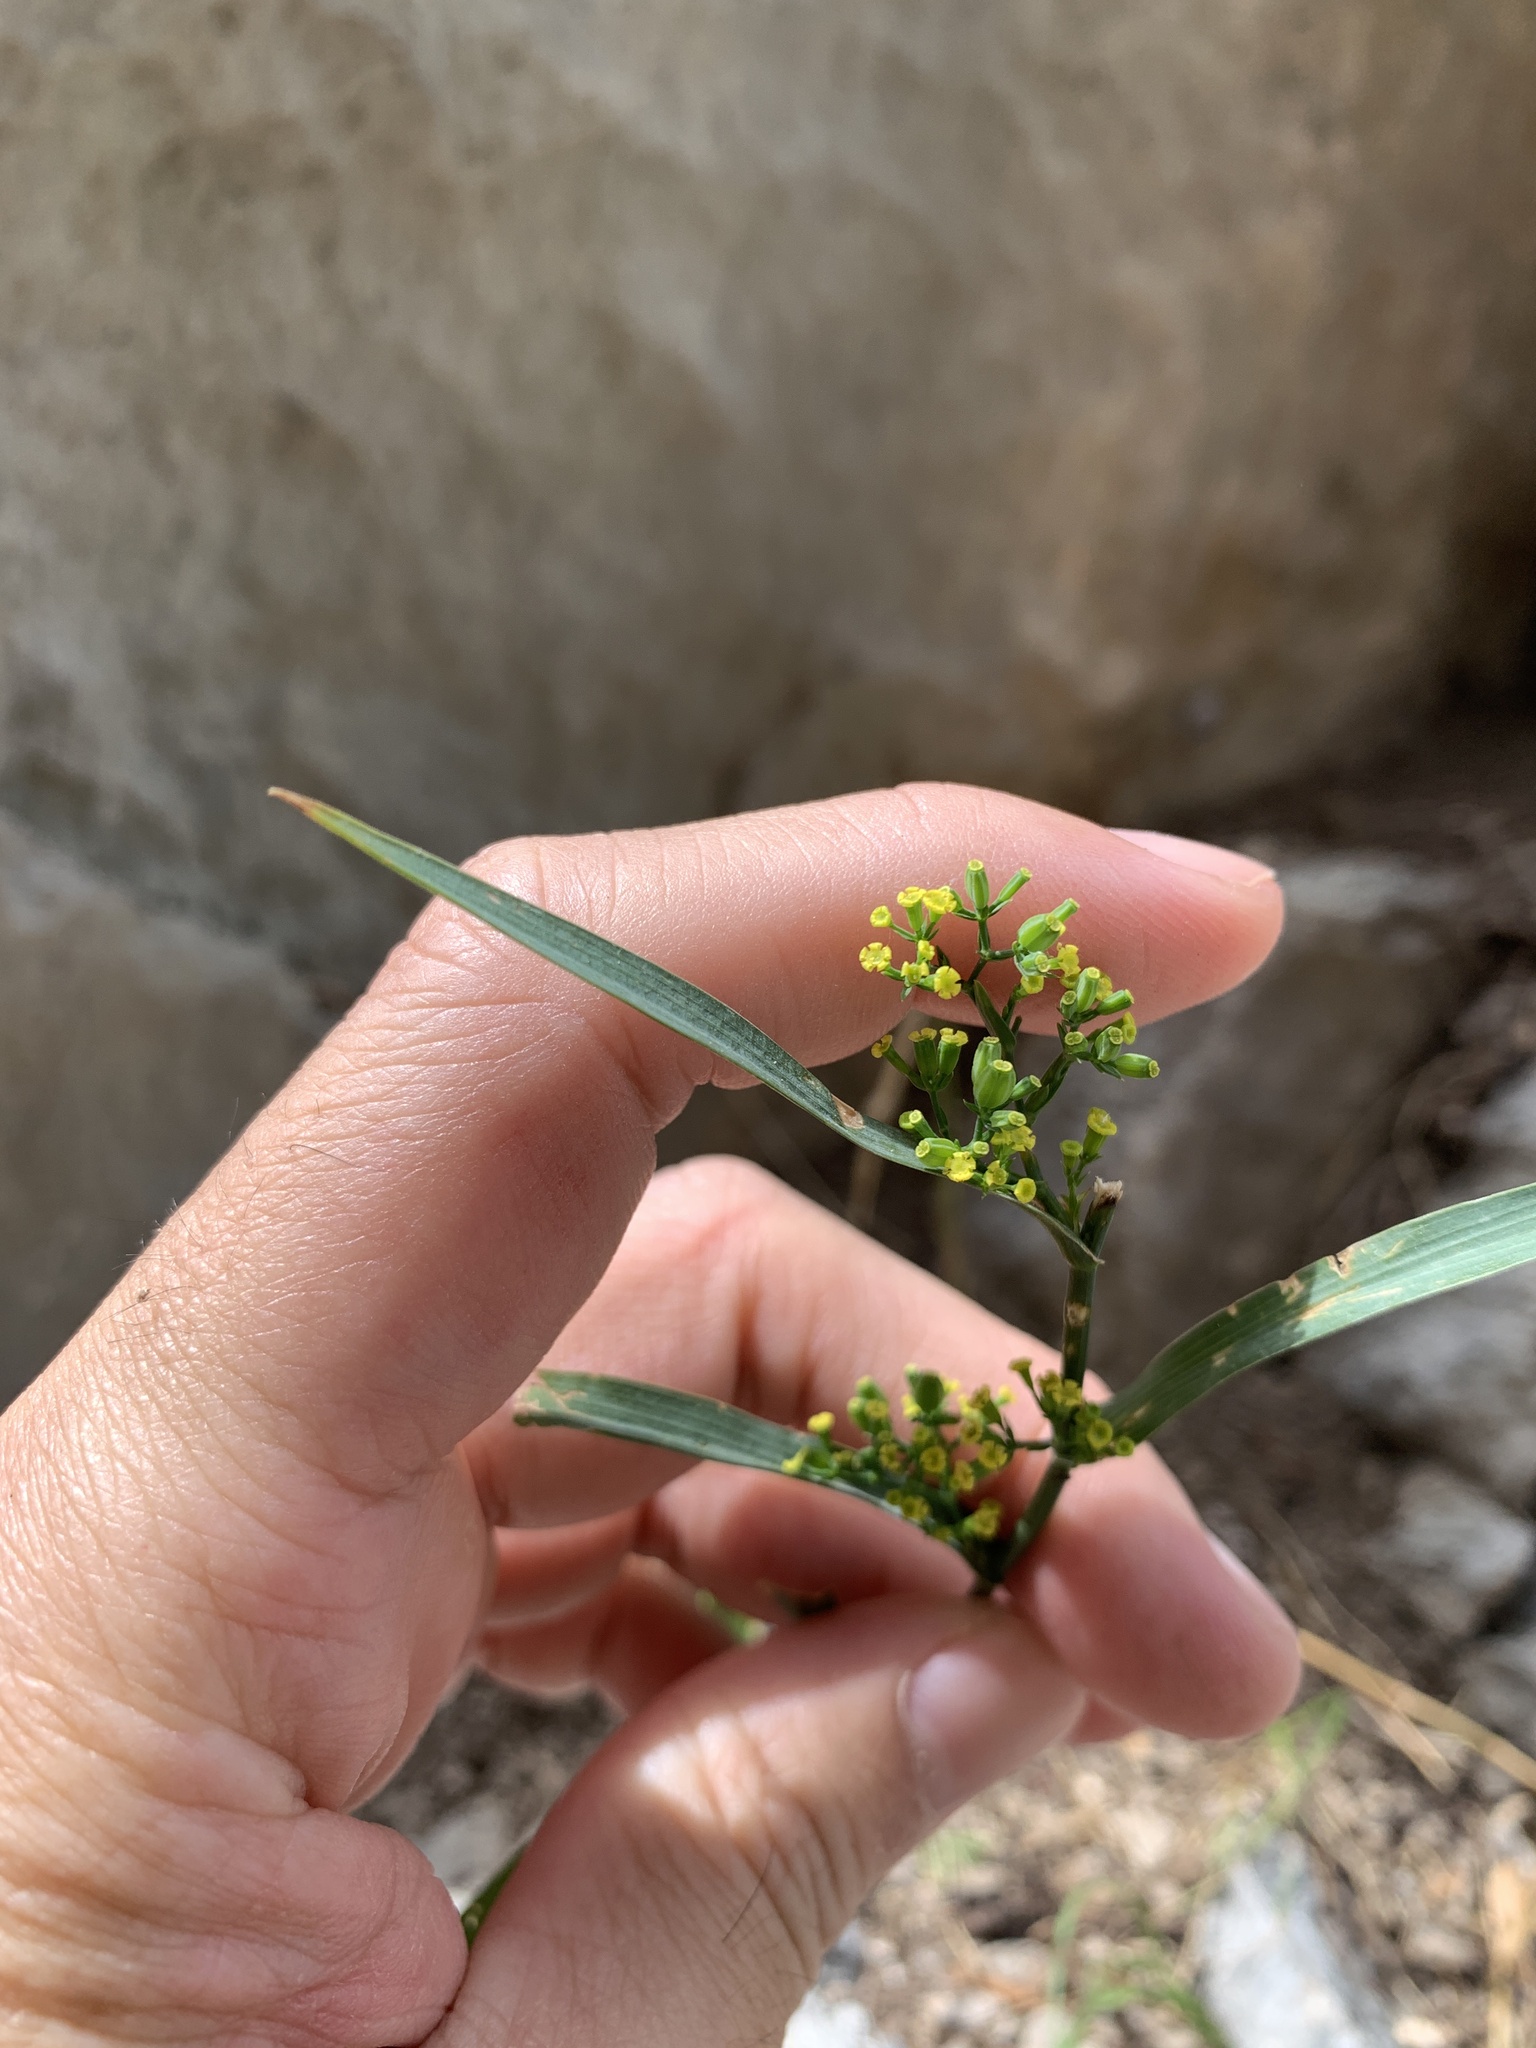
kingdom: Plantae
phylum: Tracheophyta
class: Magnoliopsida
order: Apiales
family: Apiaceae
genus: Bupleurum
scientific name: Bupleurum praealtum
